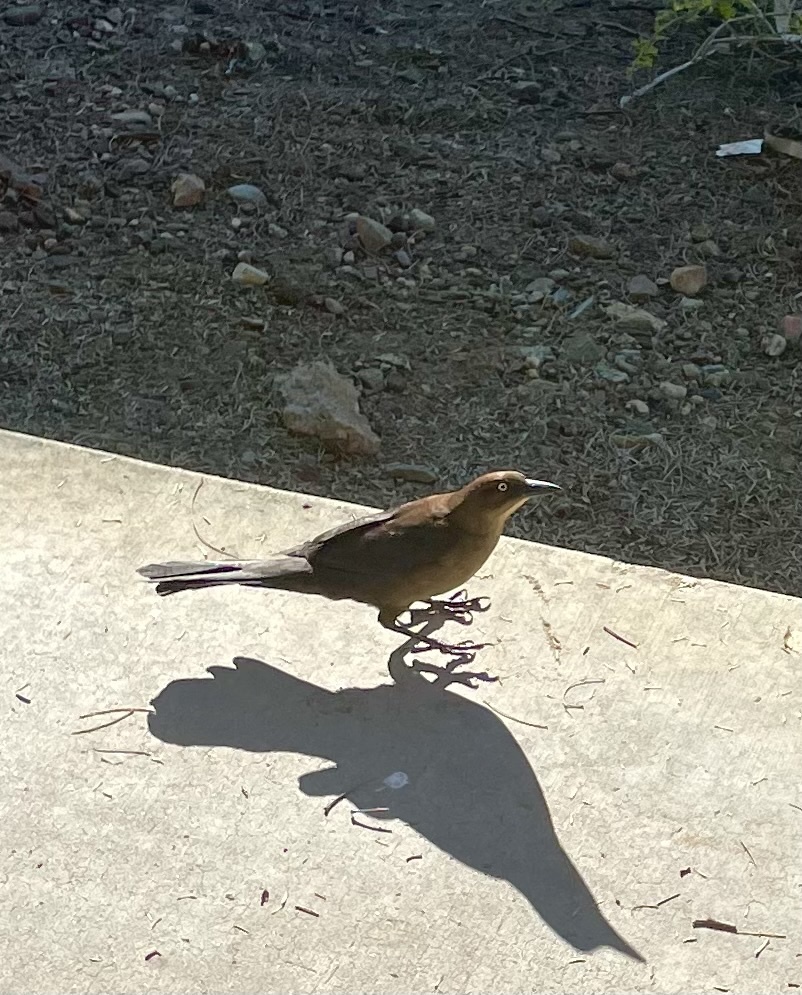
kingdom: Animalia
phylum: Chordata
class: Aves
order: Passeriformes
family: Icteridae
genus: Quiscalus
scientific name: Quiscalus mexicanus
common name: Great-tailed grackle
